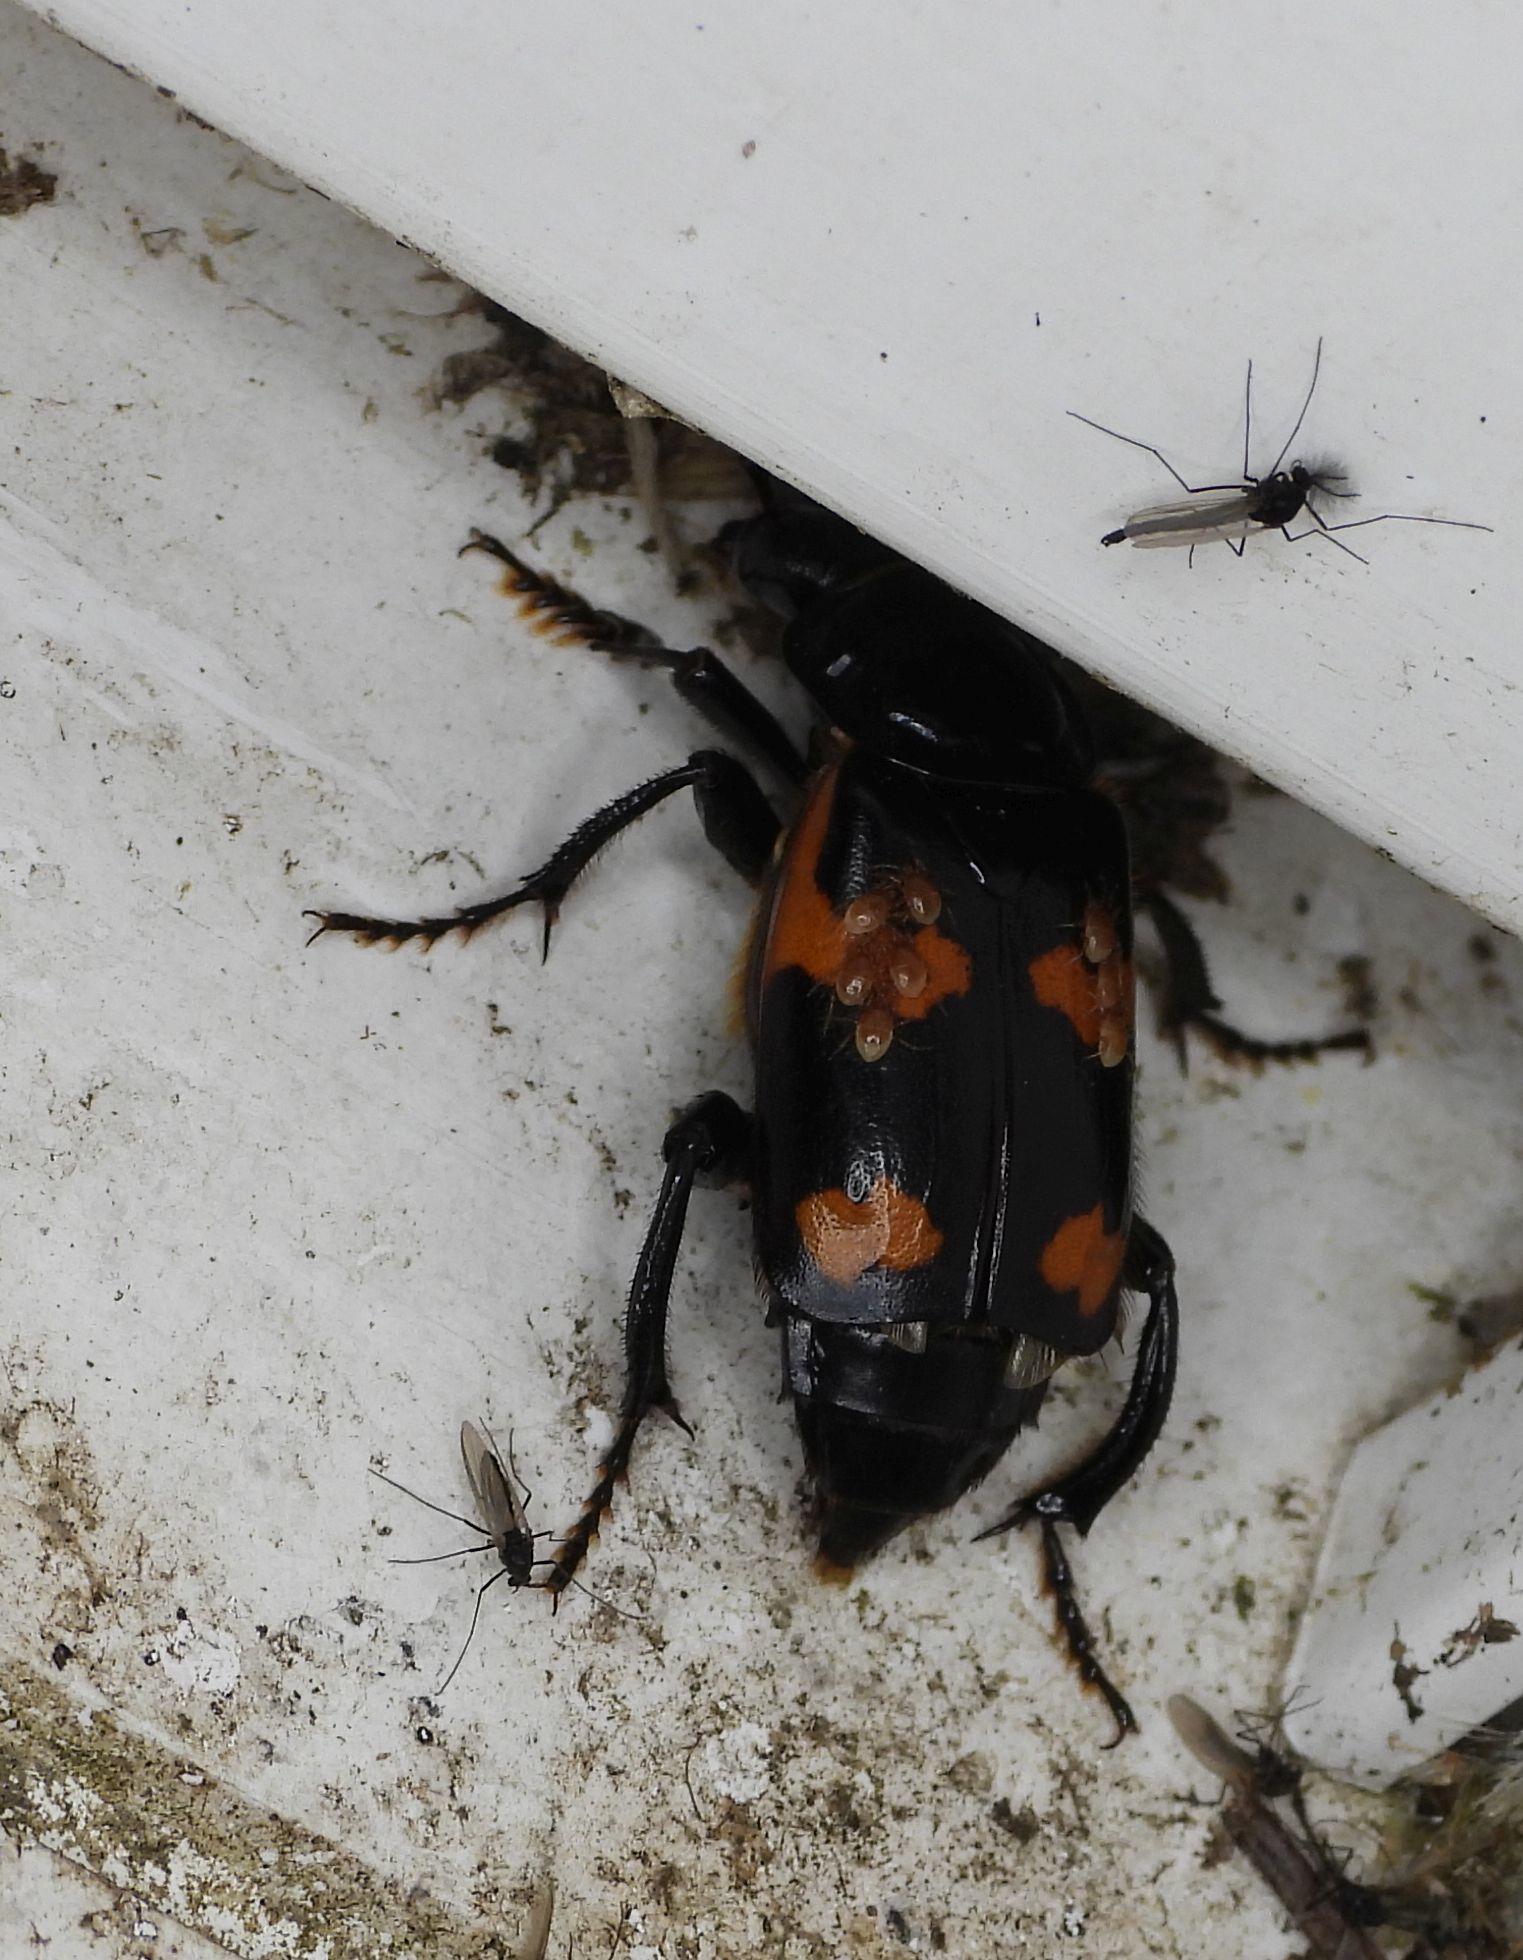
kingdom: Animalia
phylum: Arthropoda
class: Insecta
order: Coleoptera
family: Staphylinidae
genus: Nicrophorus
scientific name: Nicrophorus sayi
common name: Say's burying beetle
